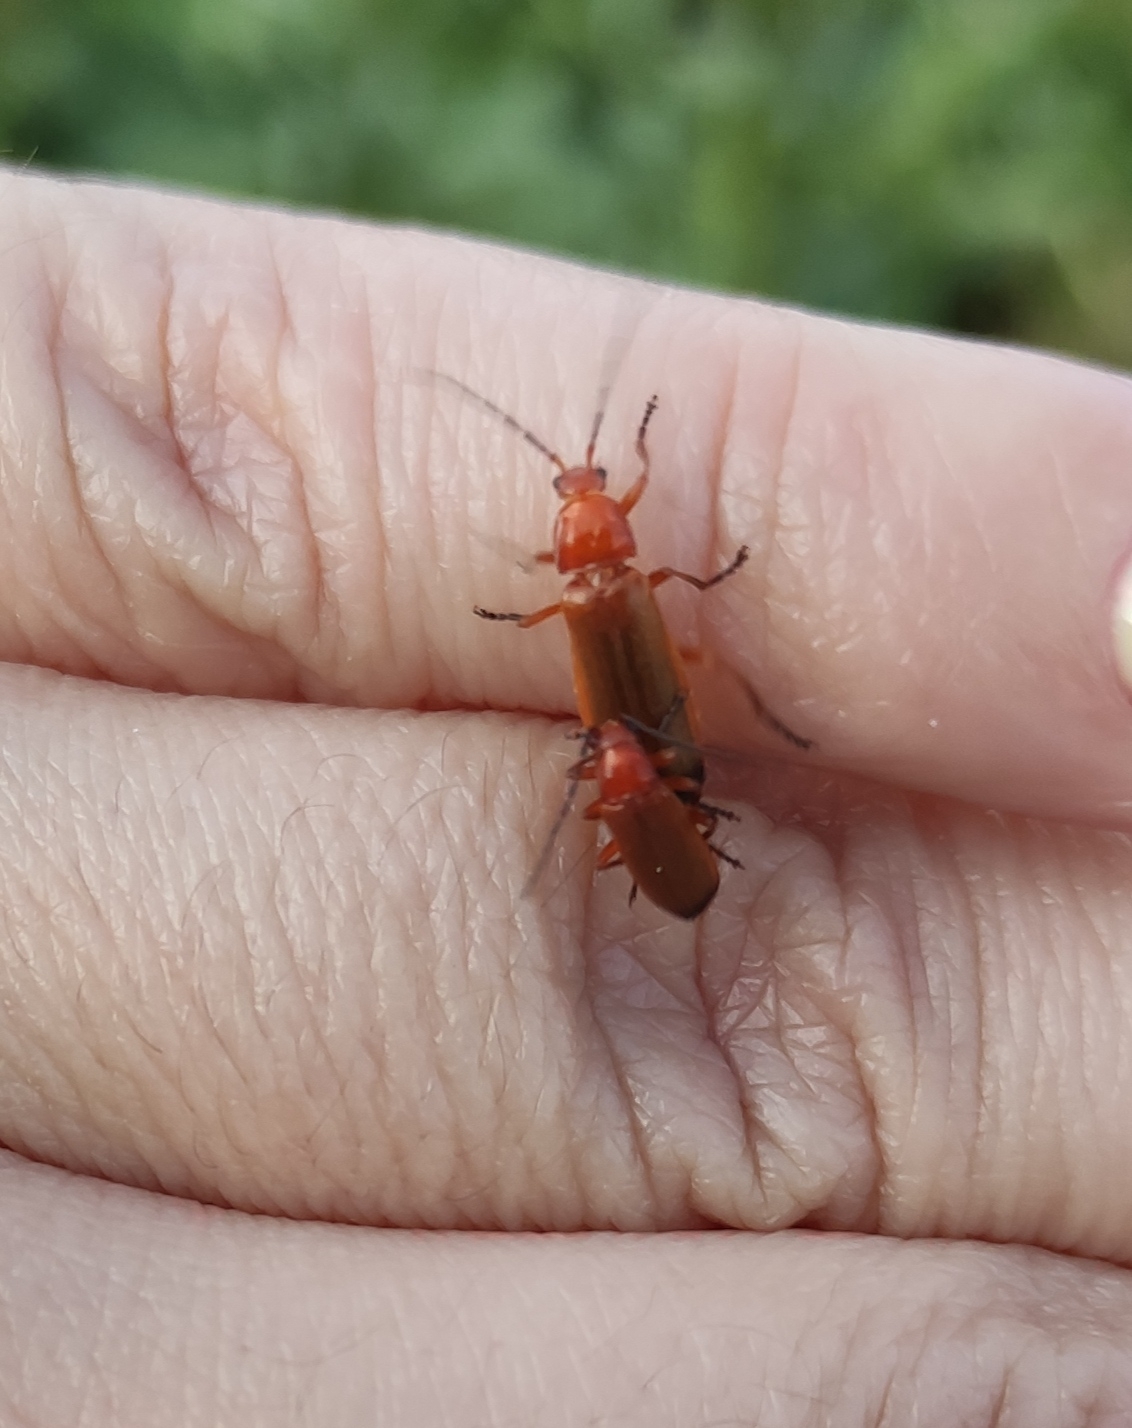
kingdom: Animalia
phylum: Arthropoda
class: Insecta
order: Coleoptera
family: Cantharidae
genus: Rhagonycha
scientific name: Rhagonycha fulva
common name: Common red soldier beetle
